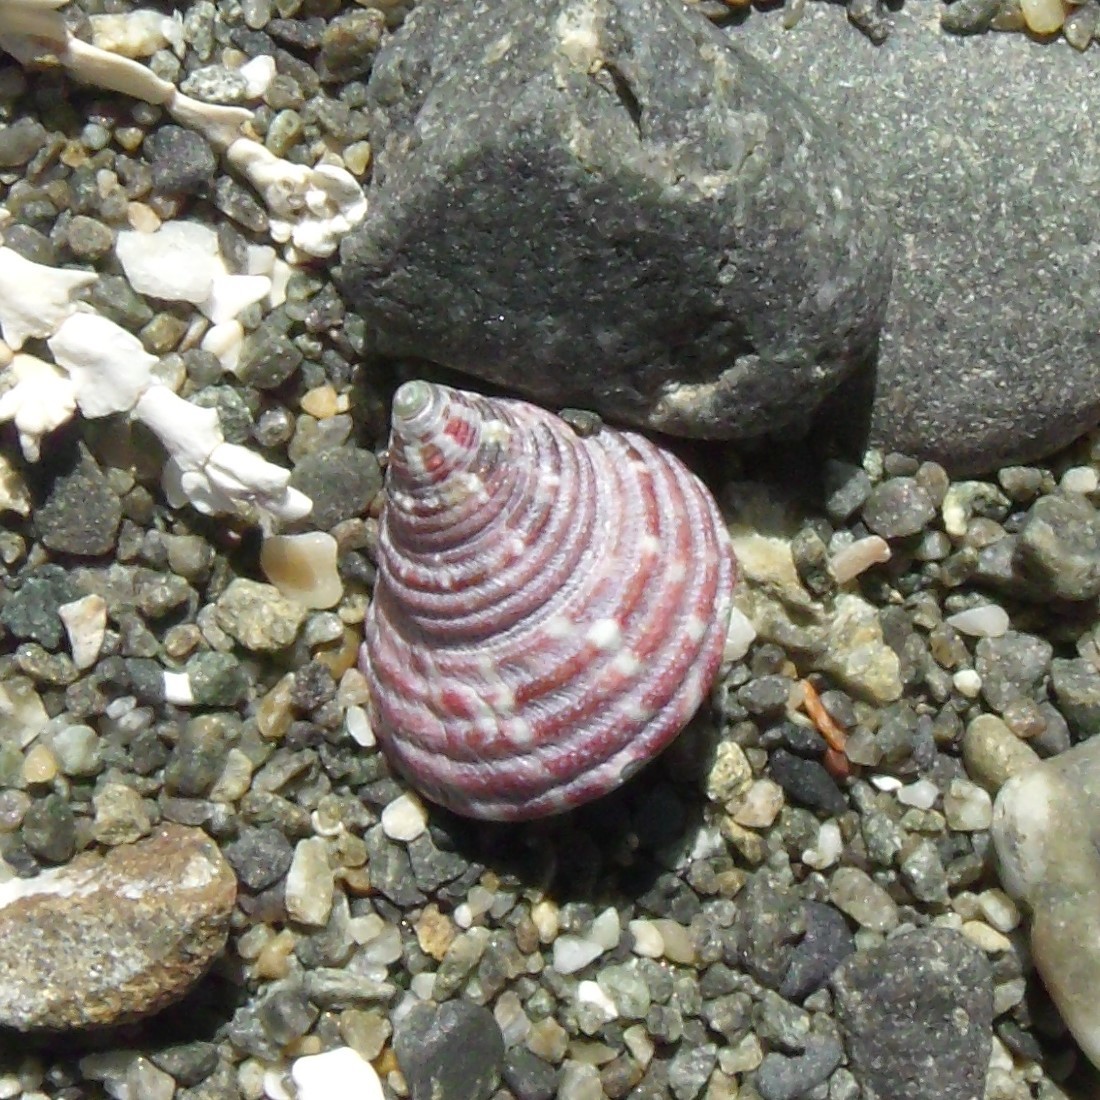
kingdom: Animalia
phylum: Mollusca
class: Gastropoda
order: Trochida
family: Trochidae
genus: Micrelenchus
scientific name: Micrelenchus purpureus
